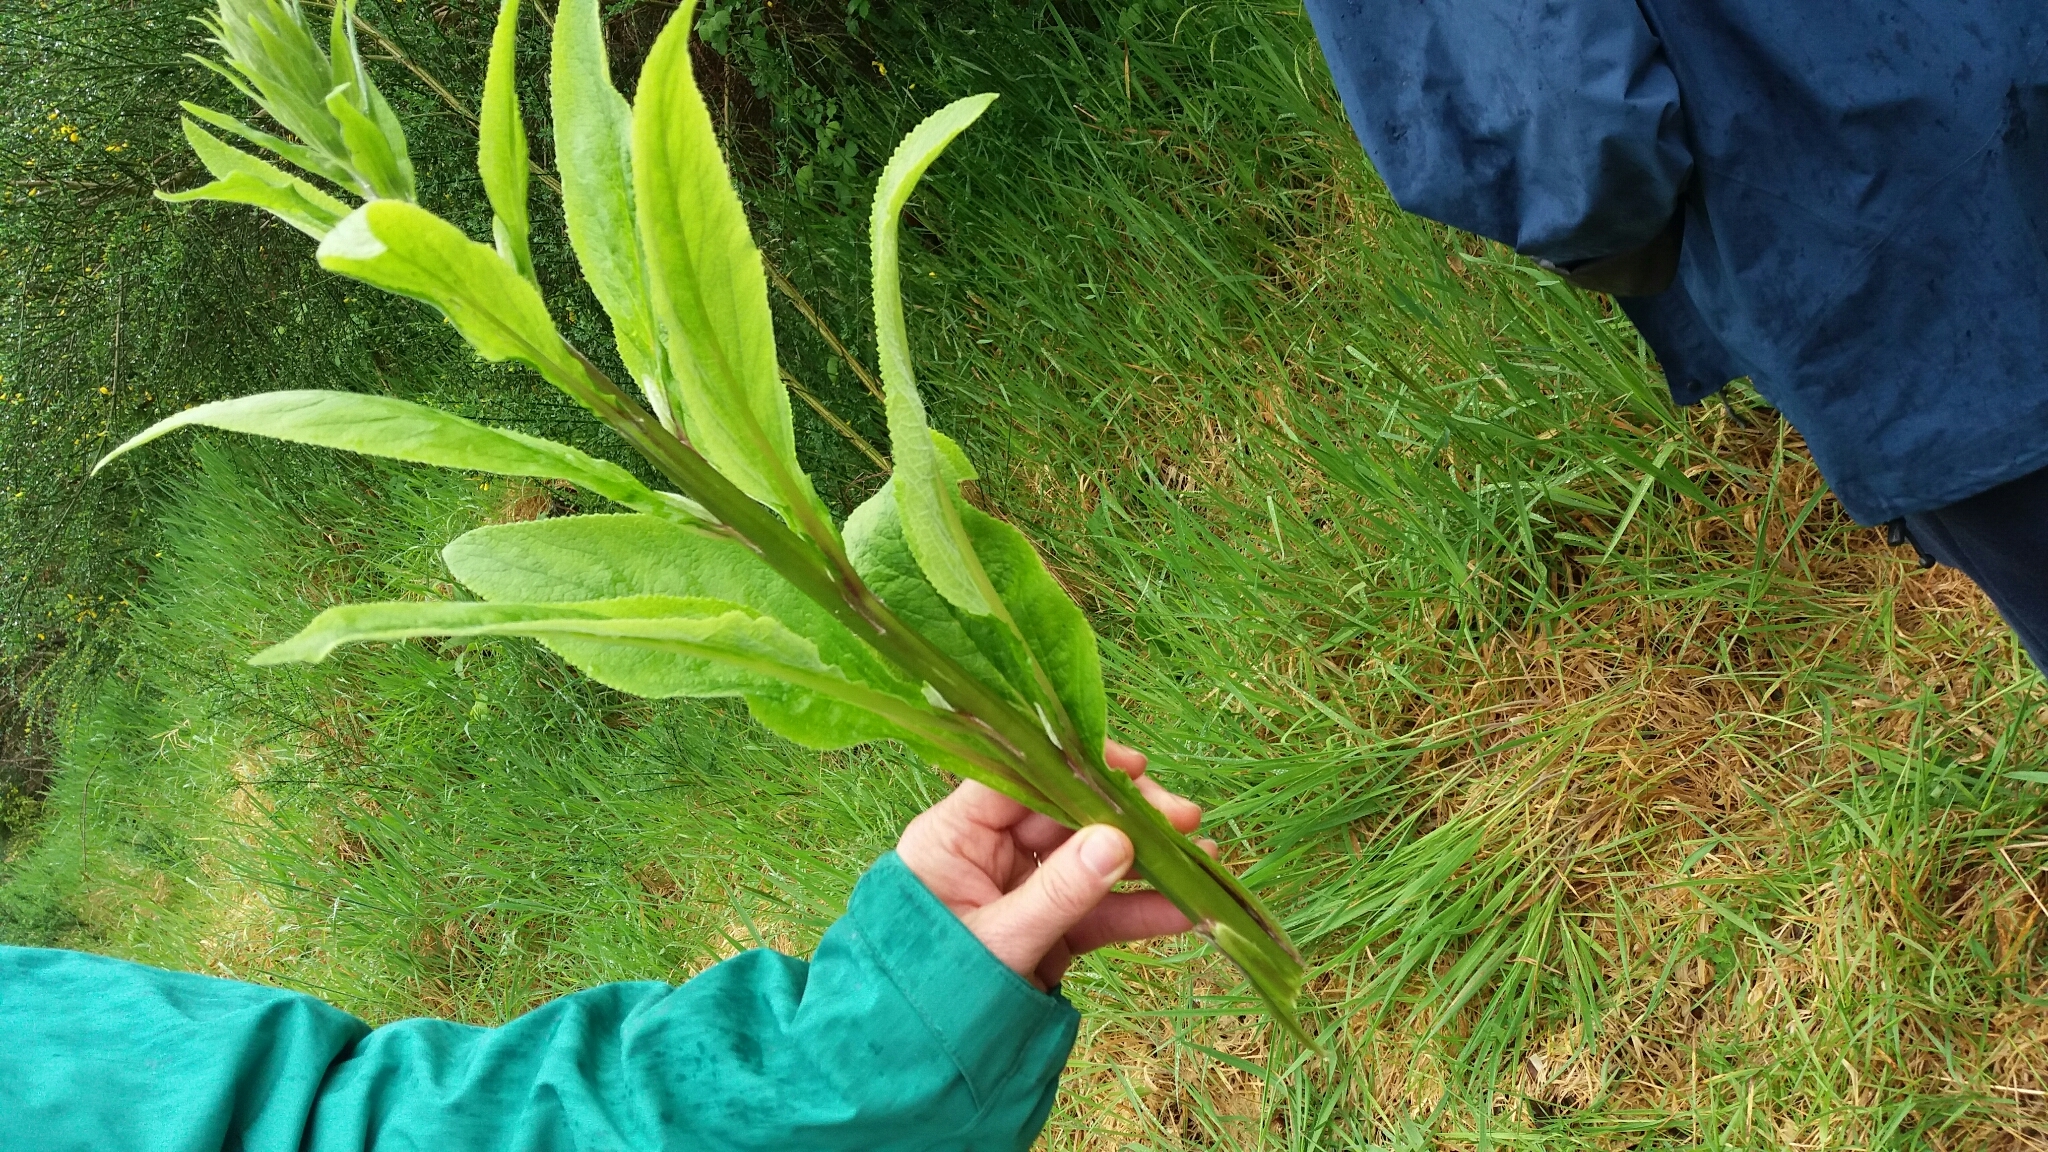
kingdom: Plantae
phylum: Tracheophyta
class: Magnoliopsida
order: Lamiales
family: Plantaginaceae
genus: Digitalis
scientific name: Digitalis purpurea
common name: Foxglove
